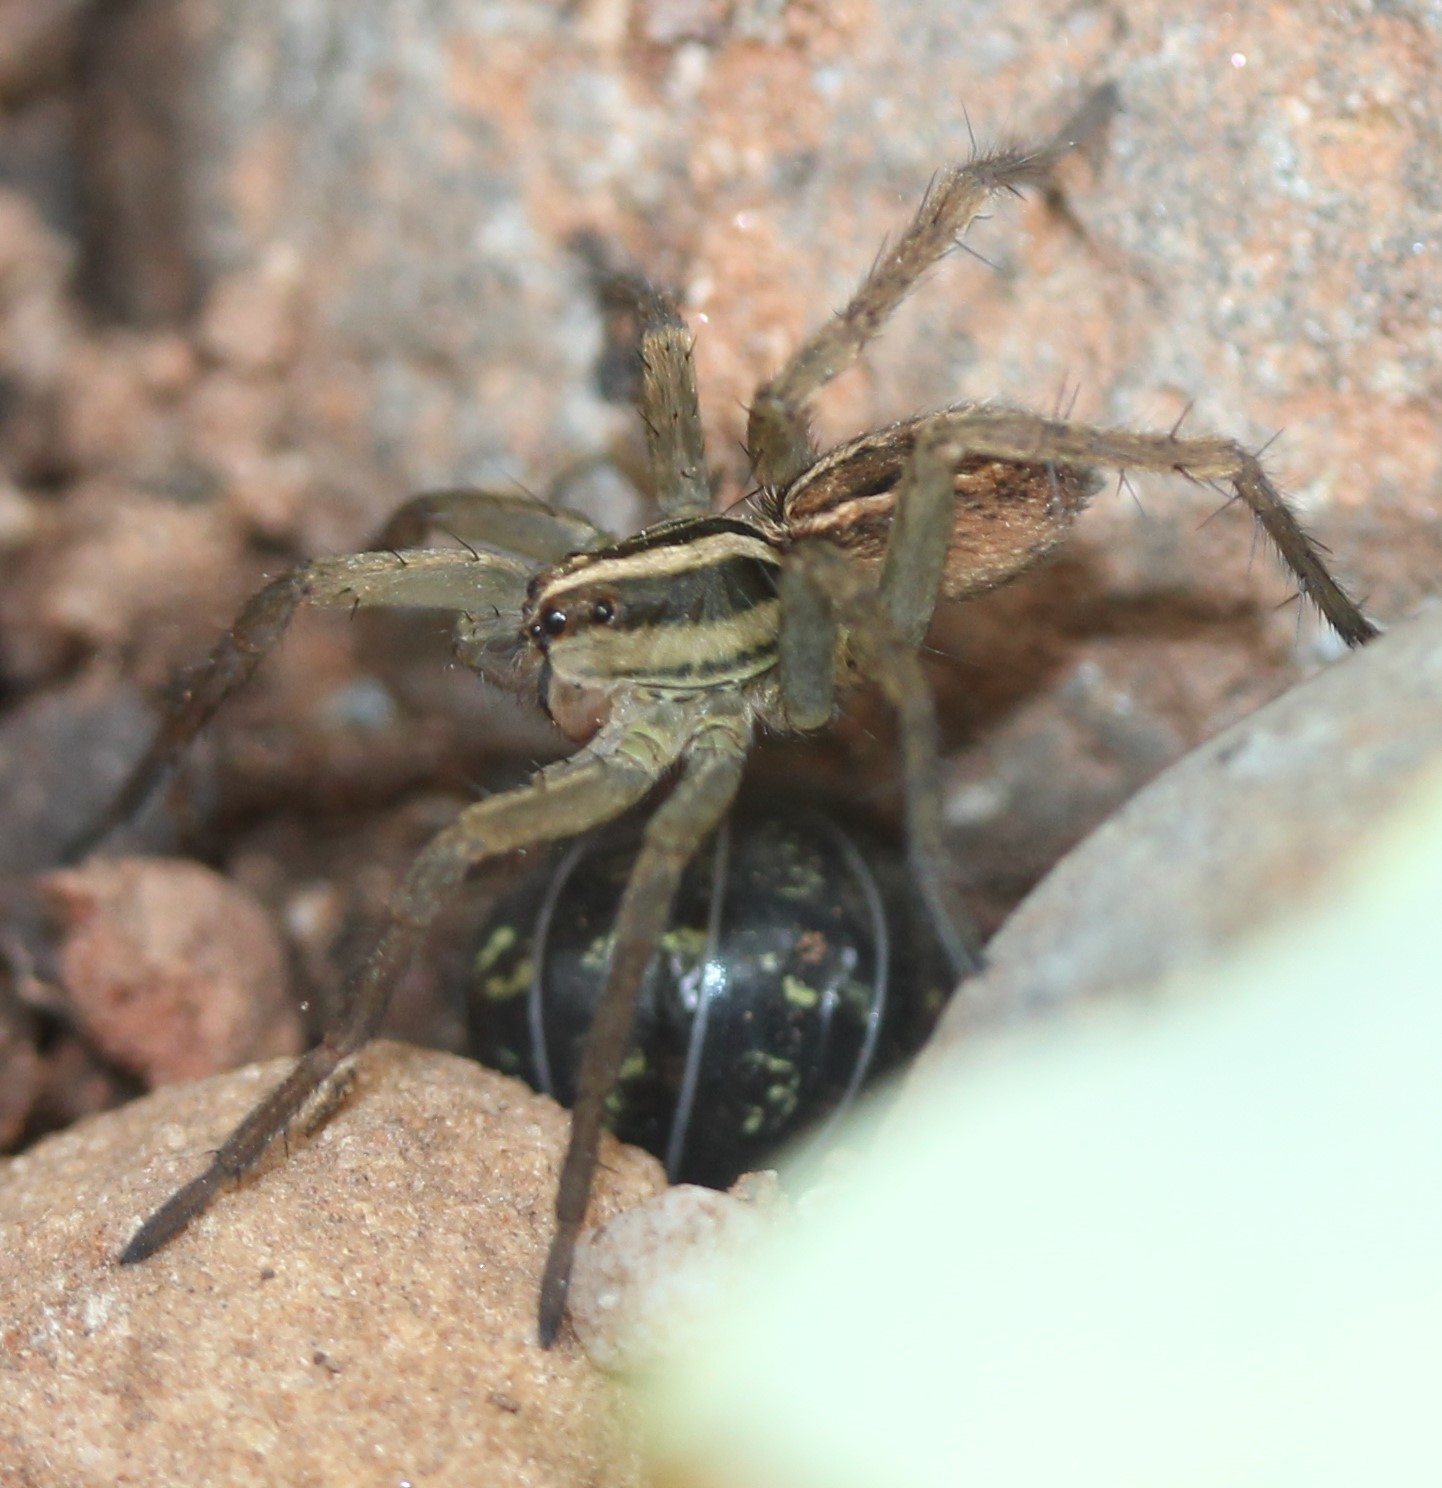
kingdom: Animalia
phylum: Arthropoda
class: Arachnida
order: Araneae
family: Lycosidae
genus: Rabidosa
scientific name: Rabidosa santrita
